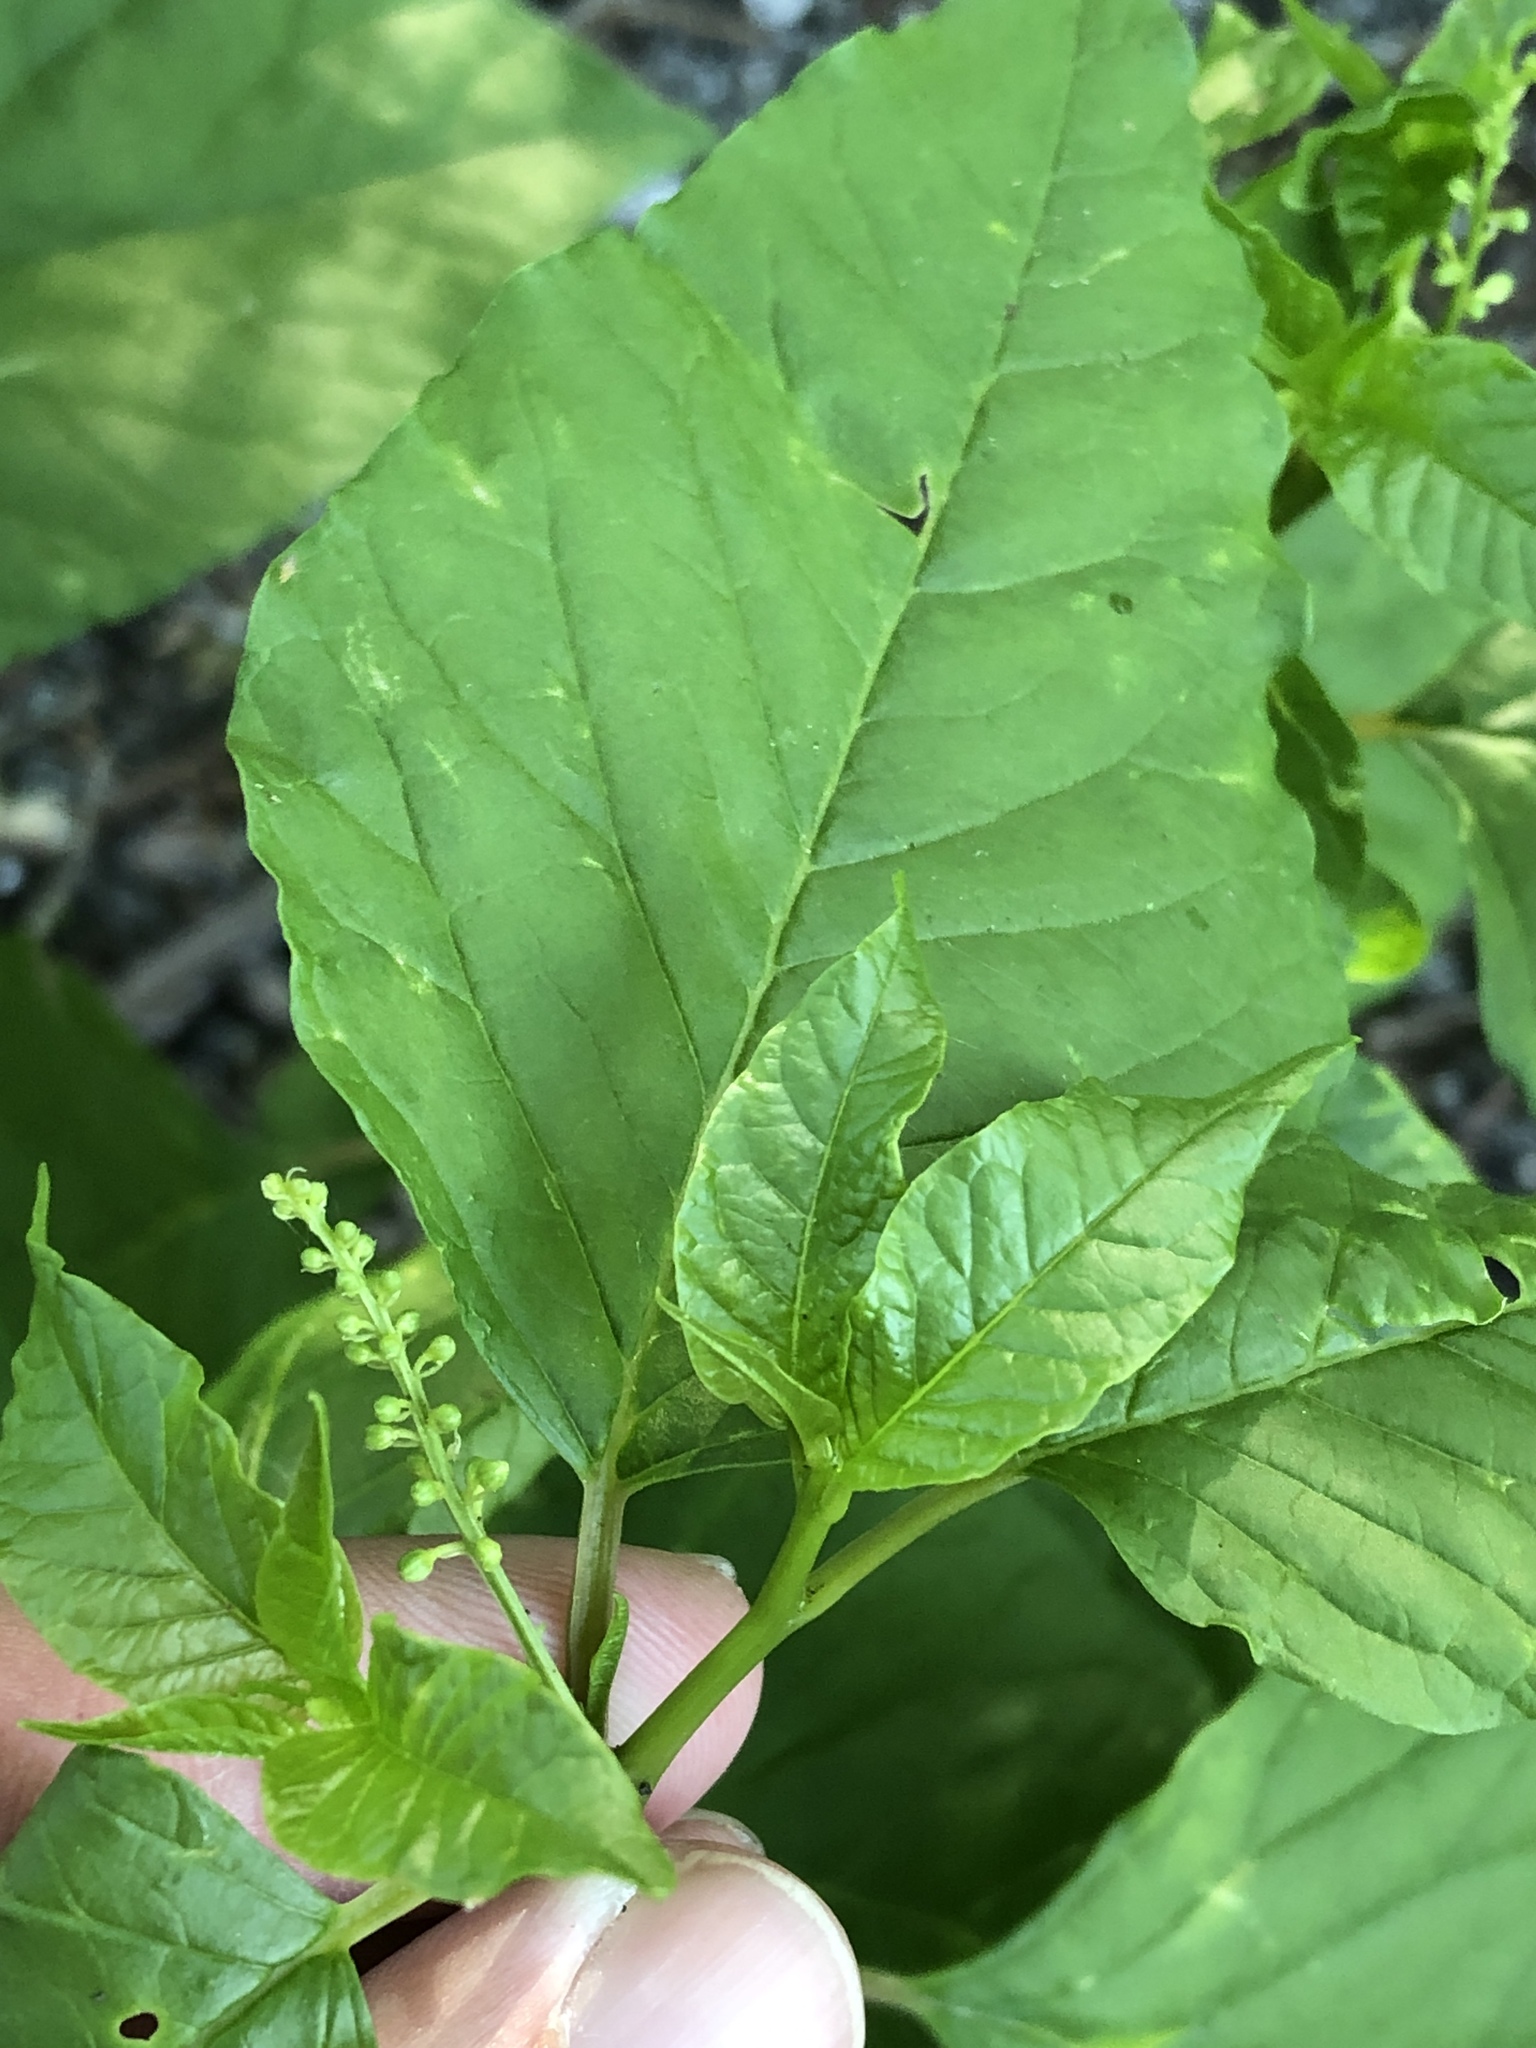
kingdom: Plantae
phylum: Tracheophyta
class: Magnoliopsida
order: Caryophyllales
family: Phytolaccaceae
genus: Phytolacca
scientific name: Phytolacca americana
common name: American pokeweed
